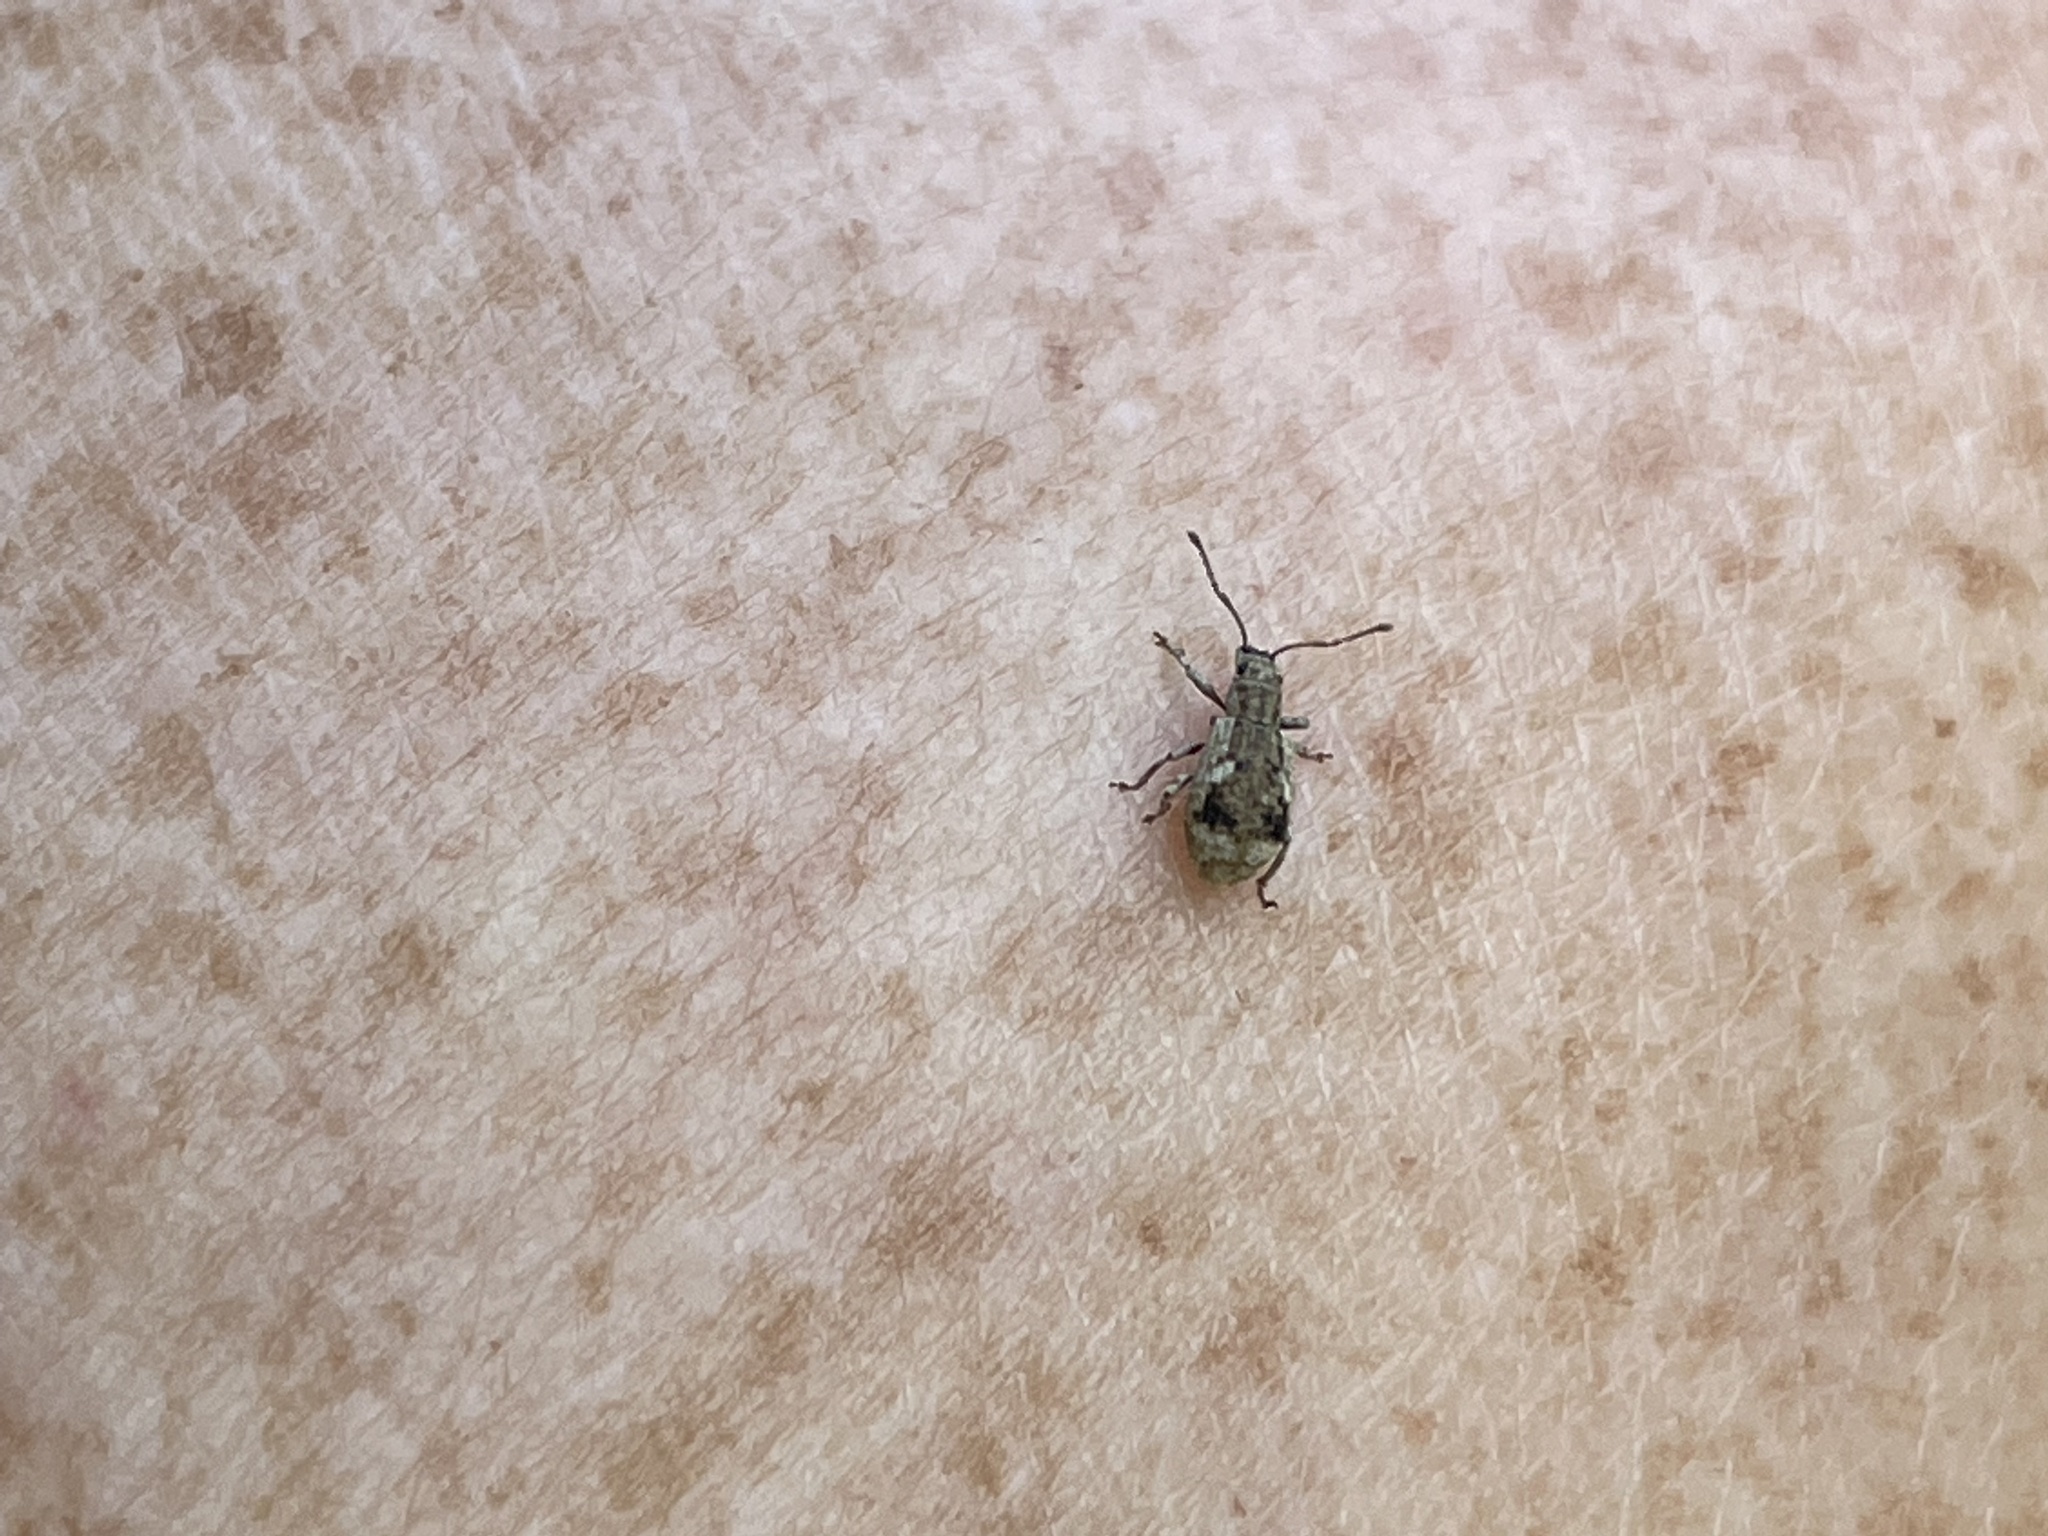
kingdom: Animalia
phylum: Arthropoda
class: Insecta
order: Coleoptera
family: Curculionidae
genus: Pseudoedophrys
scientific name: Pseudoedophrys hilleri
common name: Weevil
